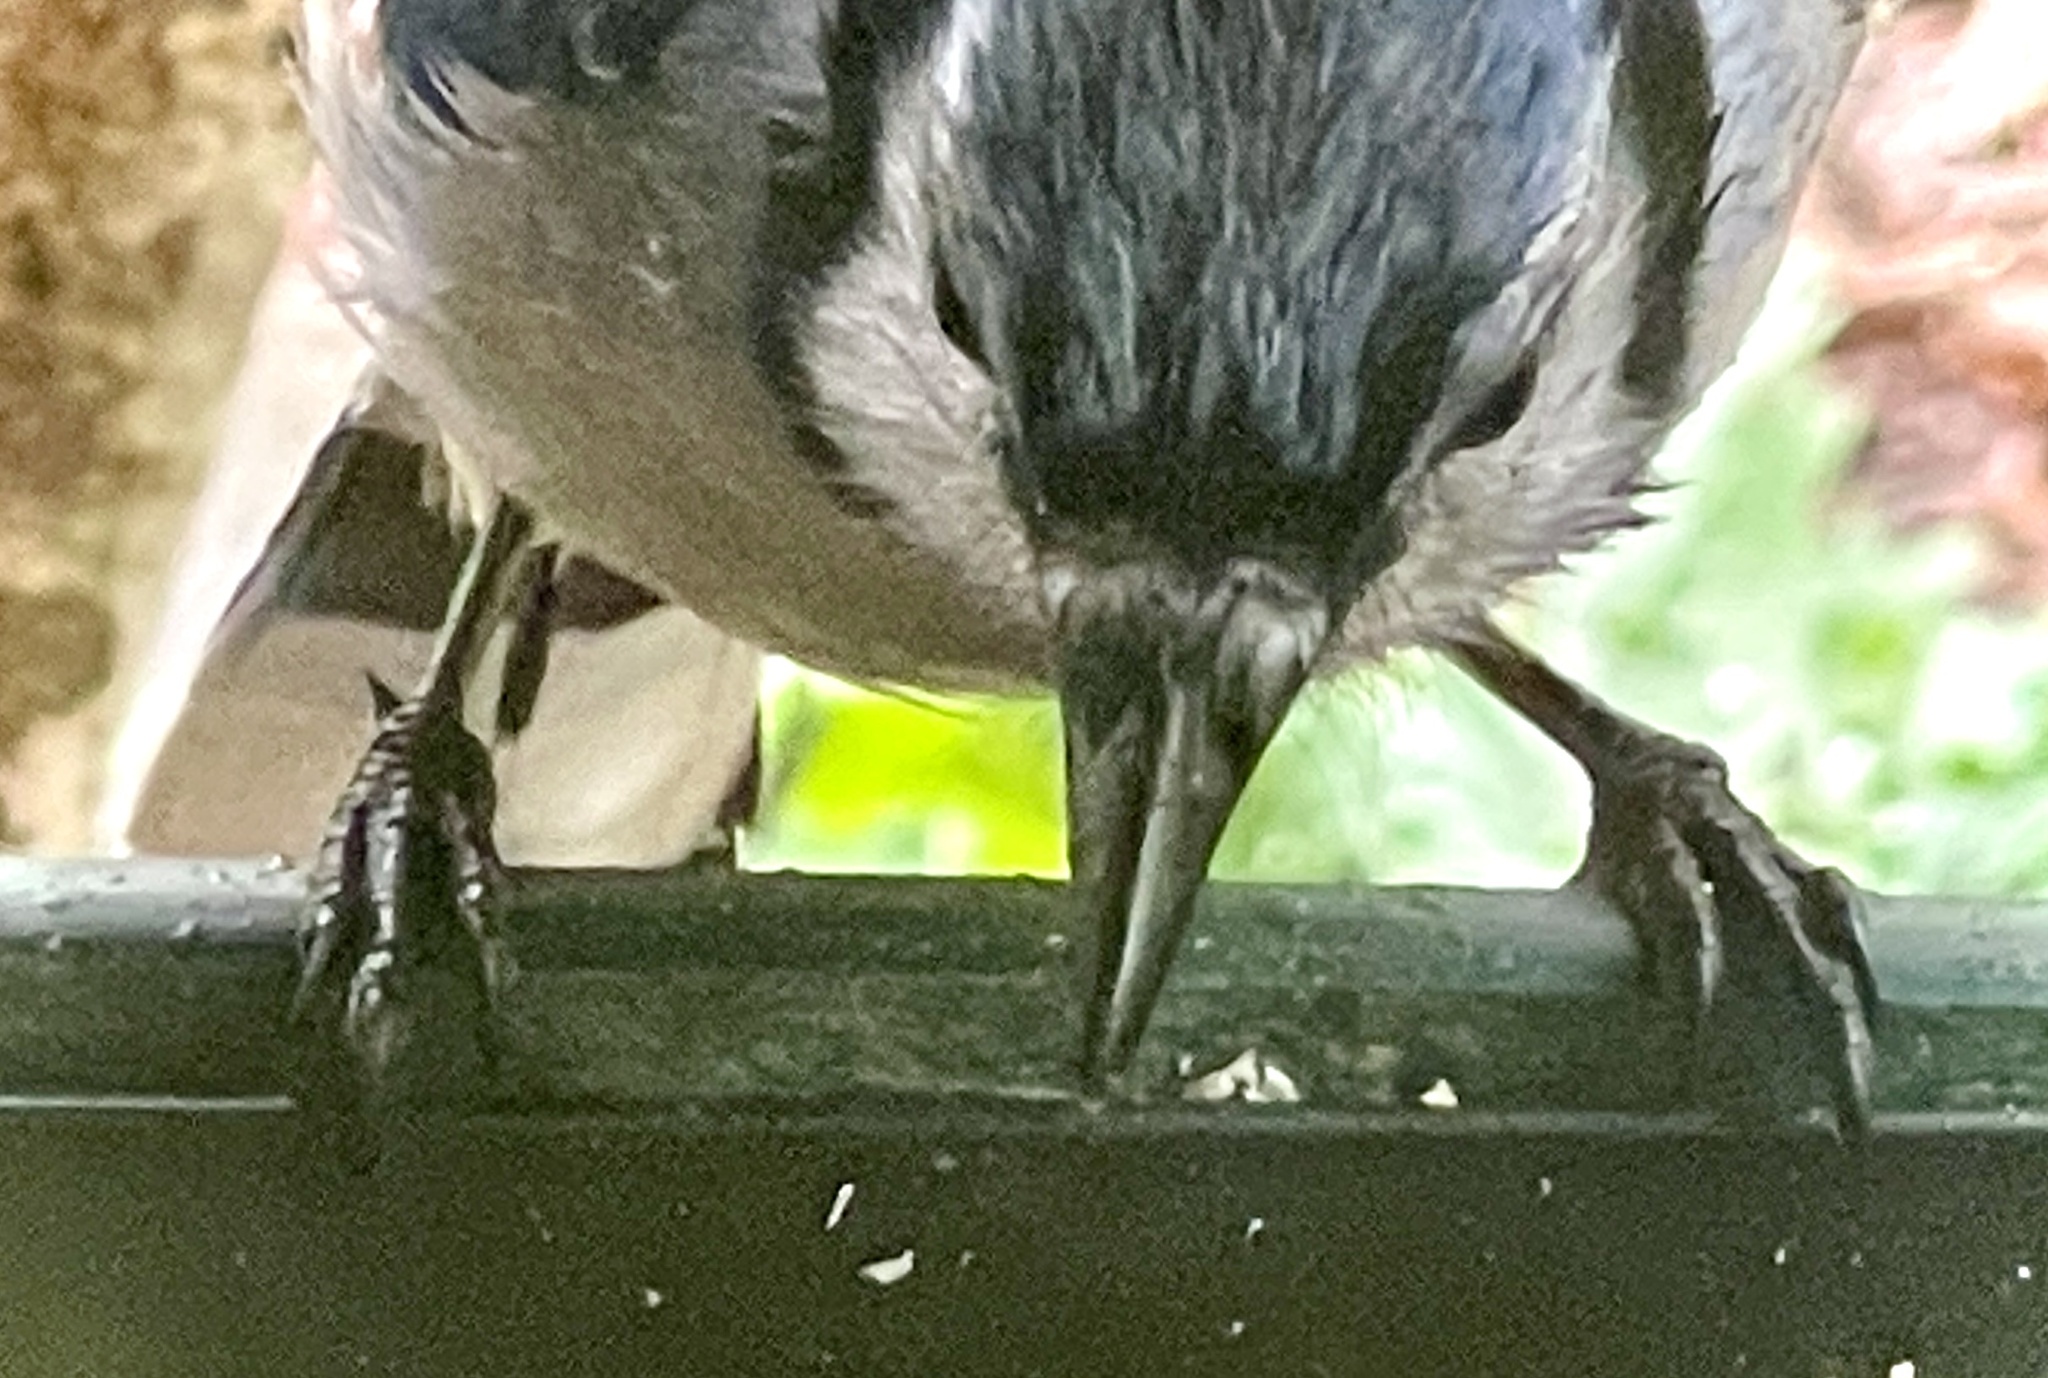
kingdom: Animalia
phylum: Chordata
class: Aves
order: Passeriformes
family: Corvidae
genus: Cyanocitta
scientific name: Cyanocitta cristata
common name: Blue jay
